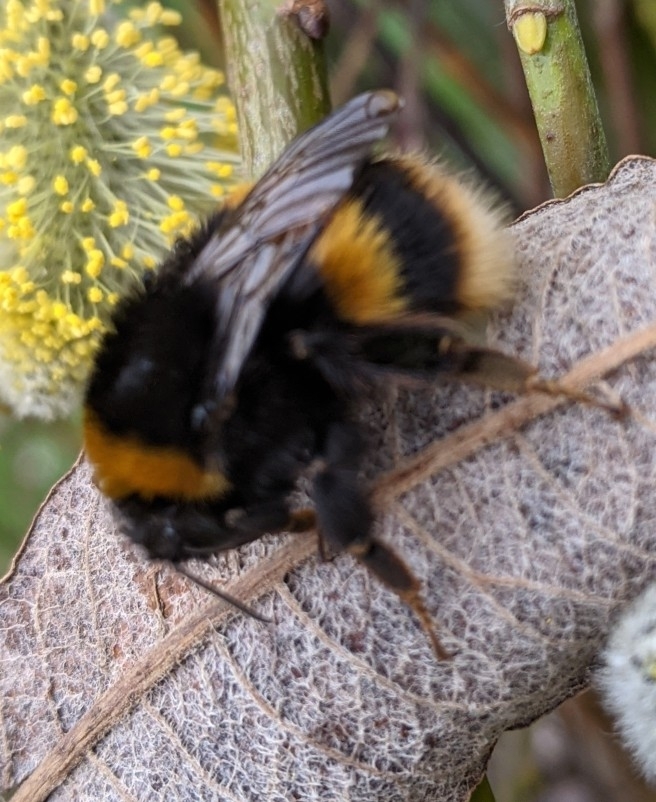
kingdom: Animalia
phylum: Arthropoda
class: Insecta
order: Hymenoptera
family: Apidae
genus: Bombus
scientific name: Bombus terrestris
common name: Buff-tailed bumblebee
